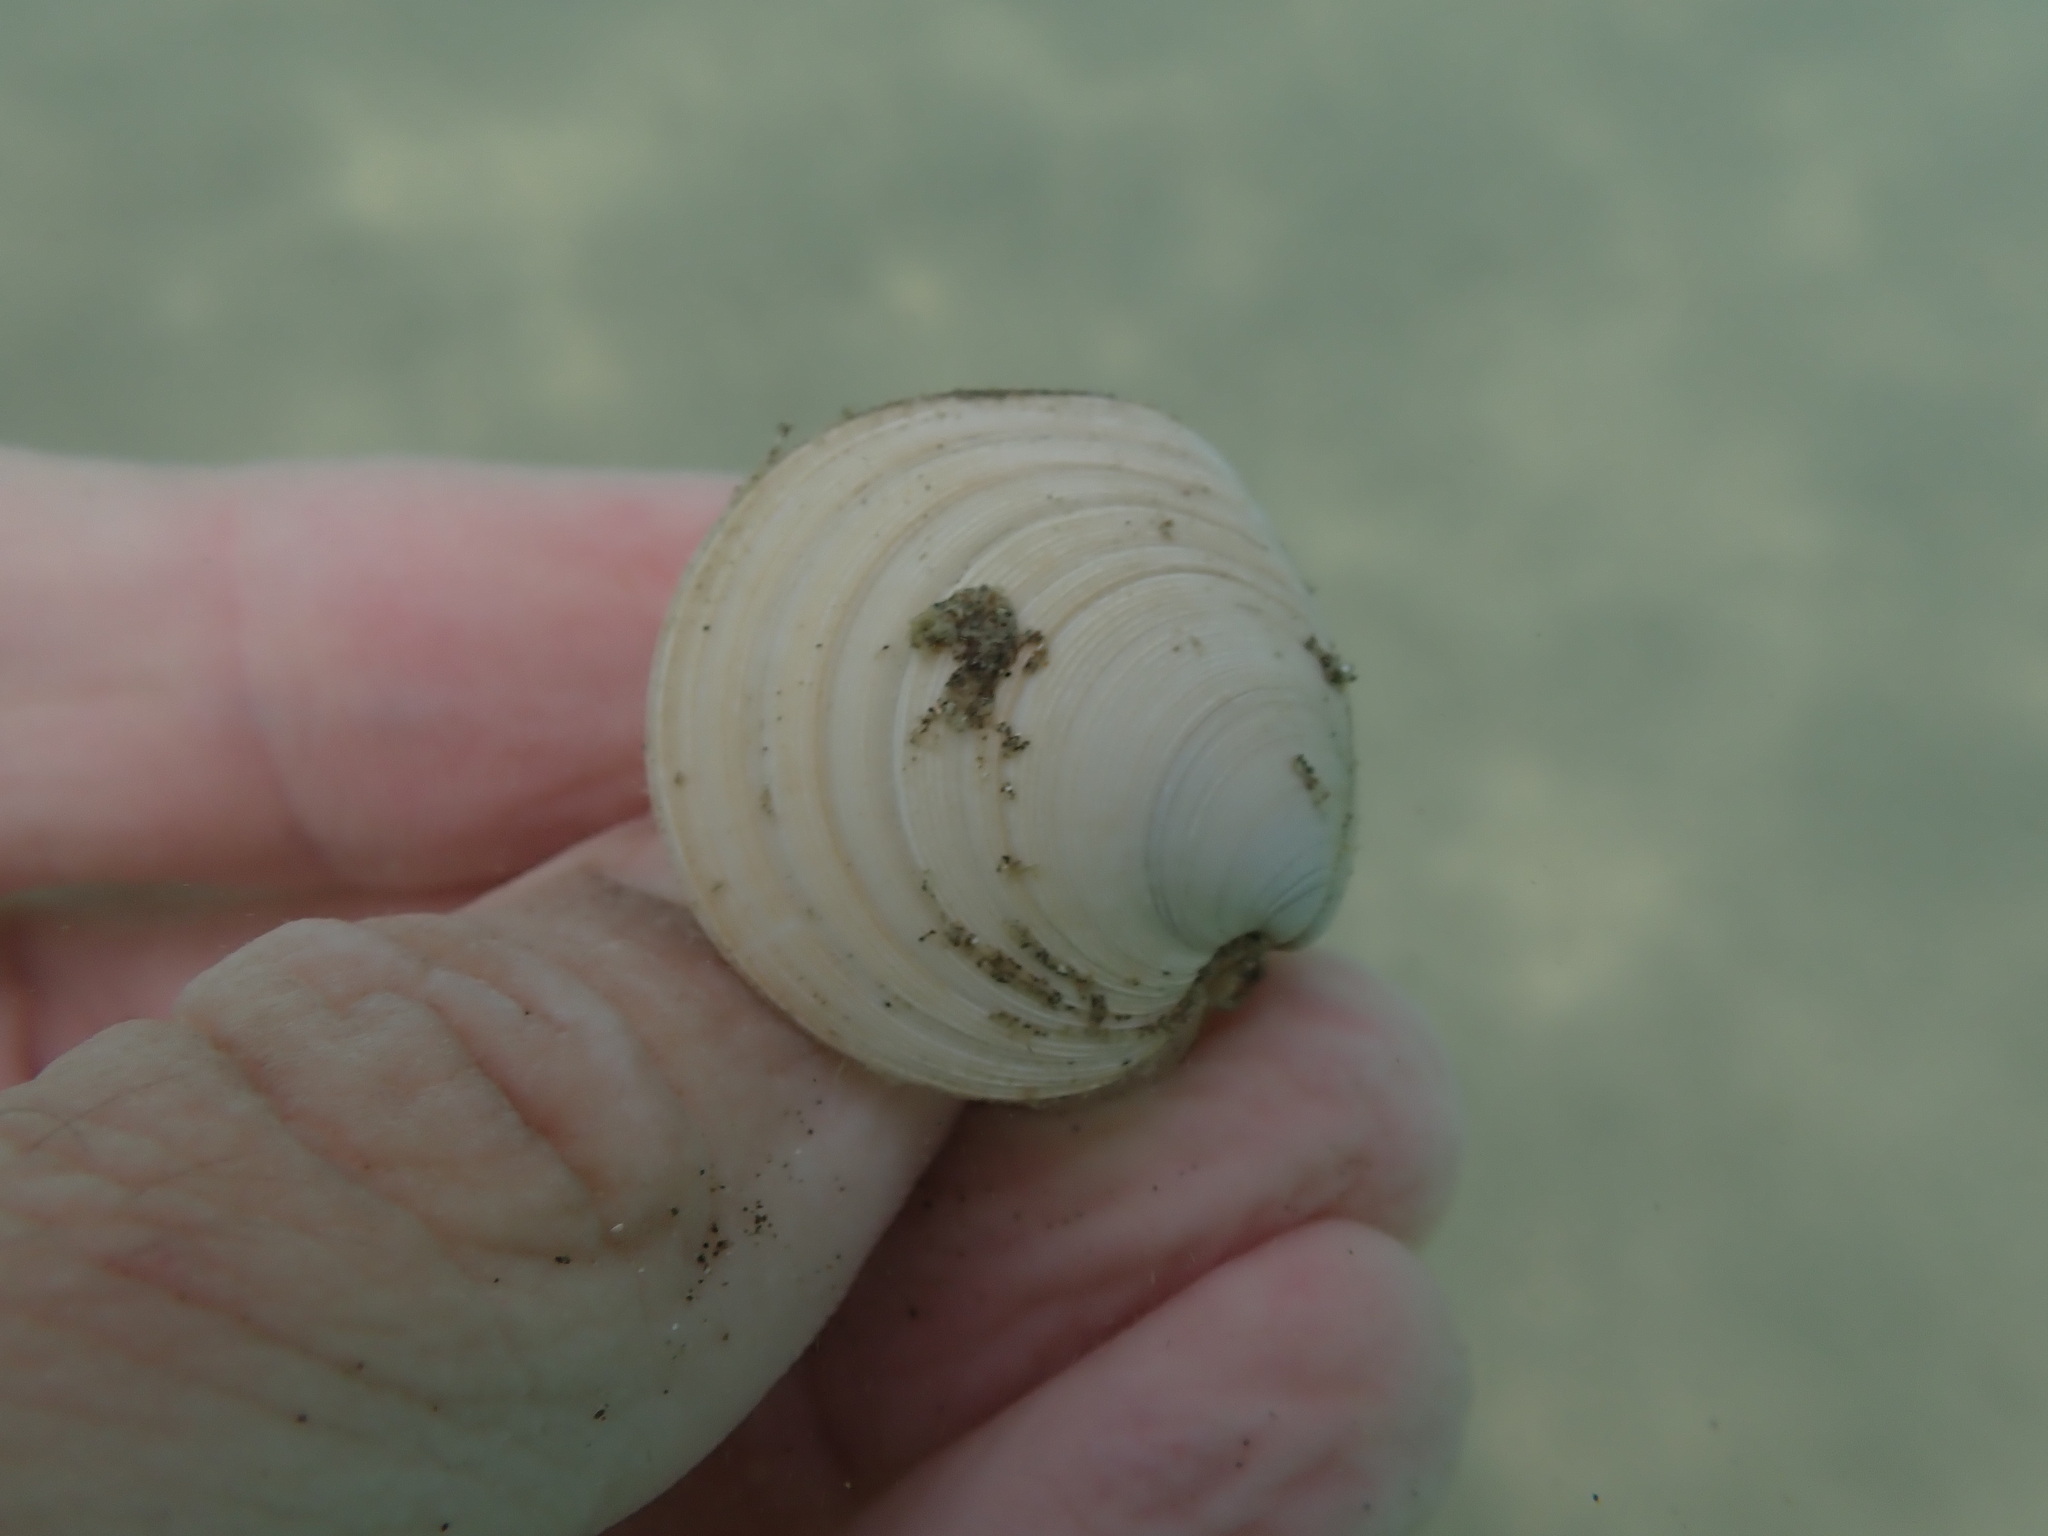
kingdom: Animalia
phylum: Mollusca
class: Bivalvia
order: Venerida
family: Veneridae
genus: Dosinia
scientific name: Dosinia subrosea
